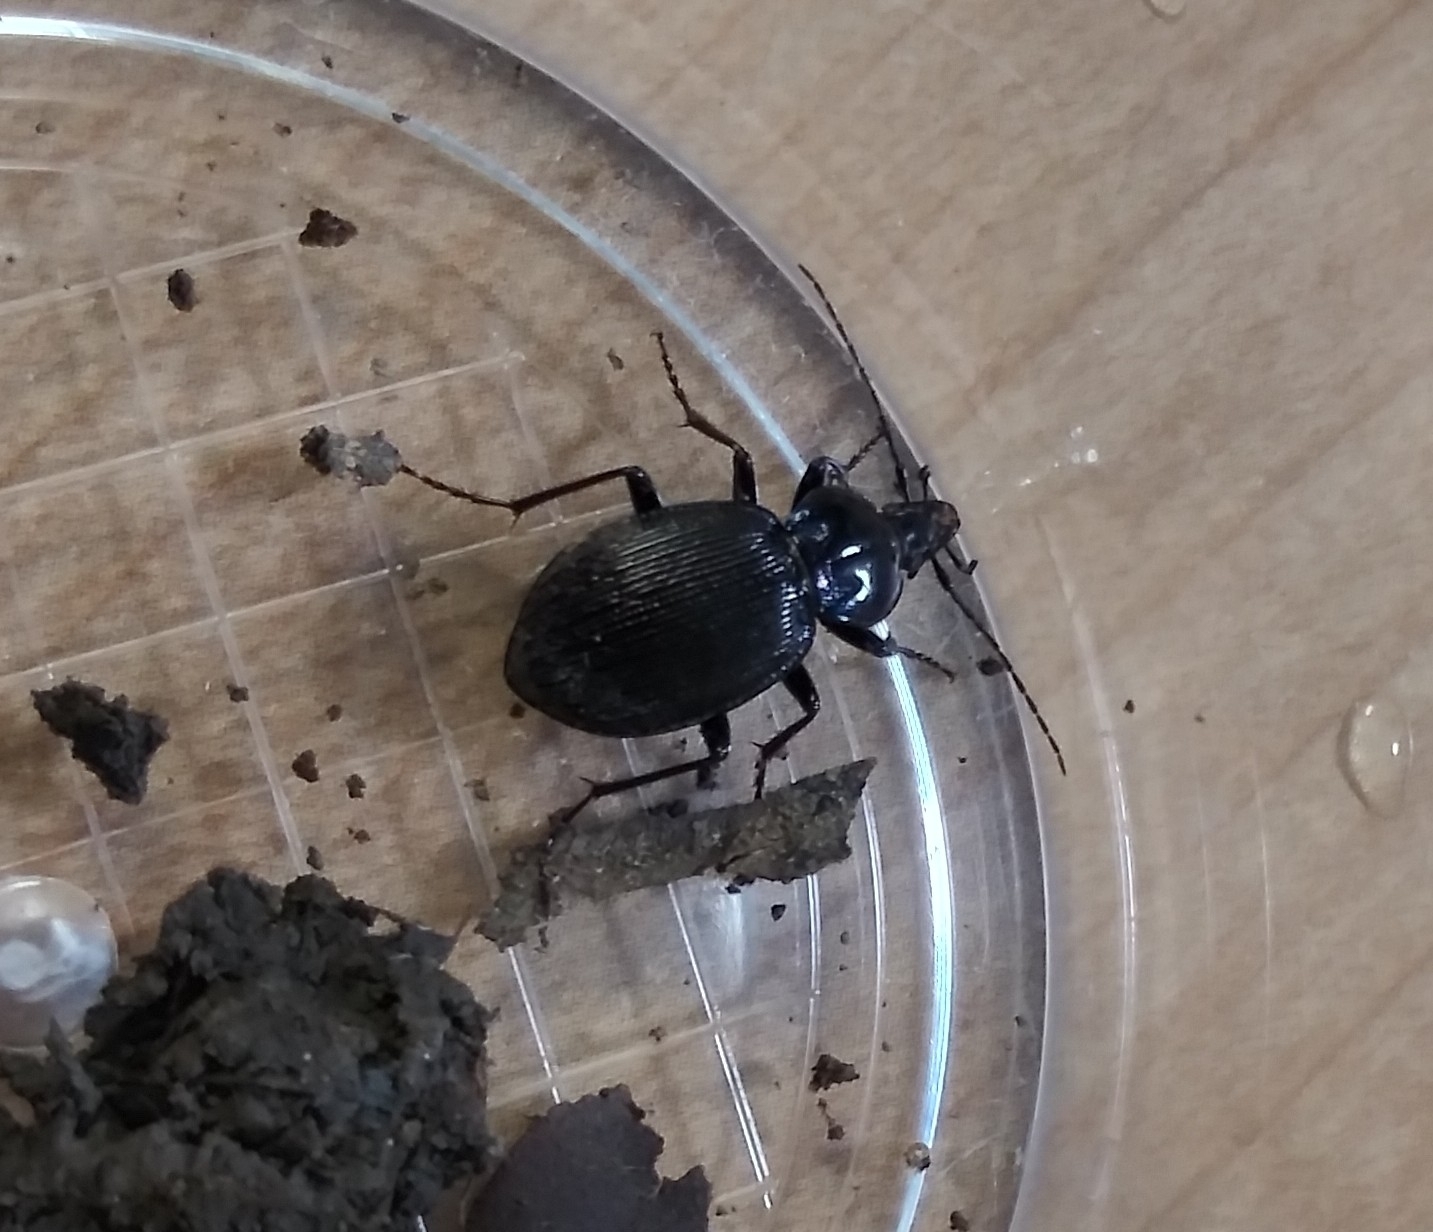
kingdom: Animalia
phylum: Arthropoda
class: Insecta
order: Coleoptera
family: Carabidae
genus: Sphaeroderus
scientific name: Sphaeroderus stenostomus
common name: Small snail-eating ground beetle
